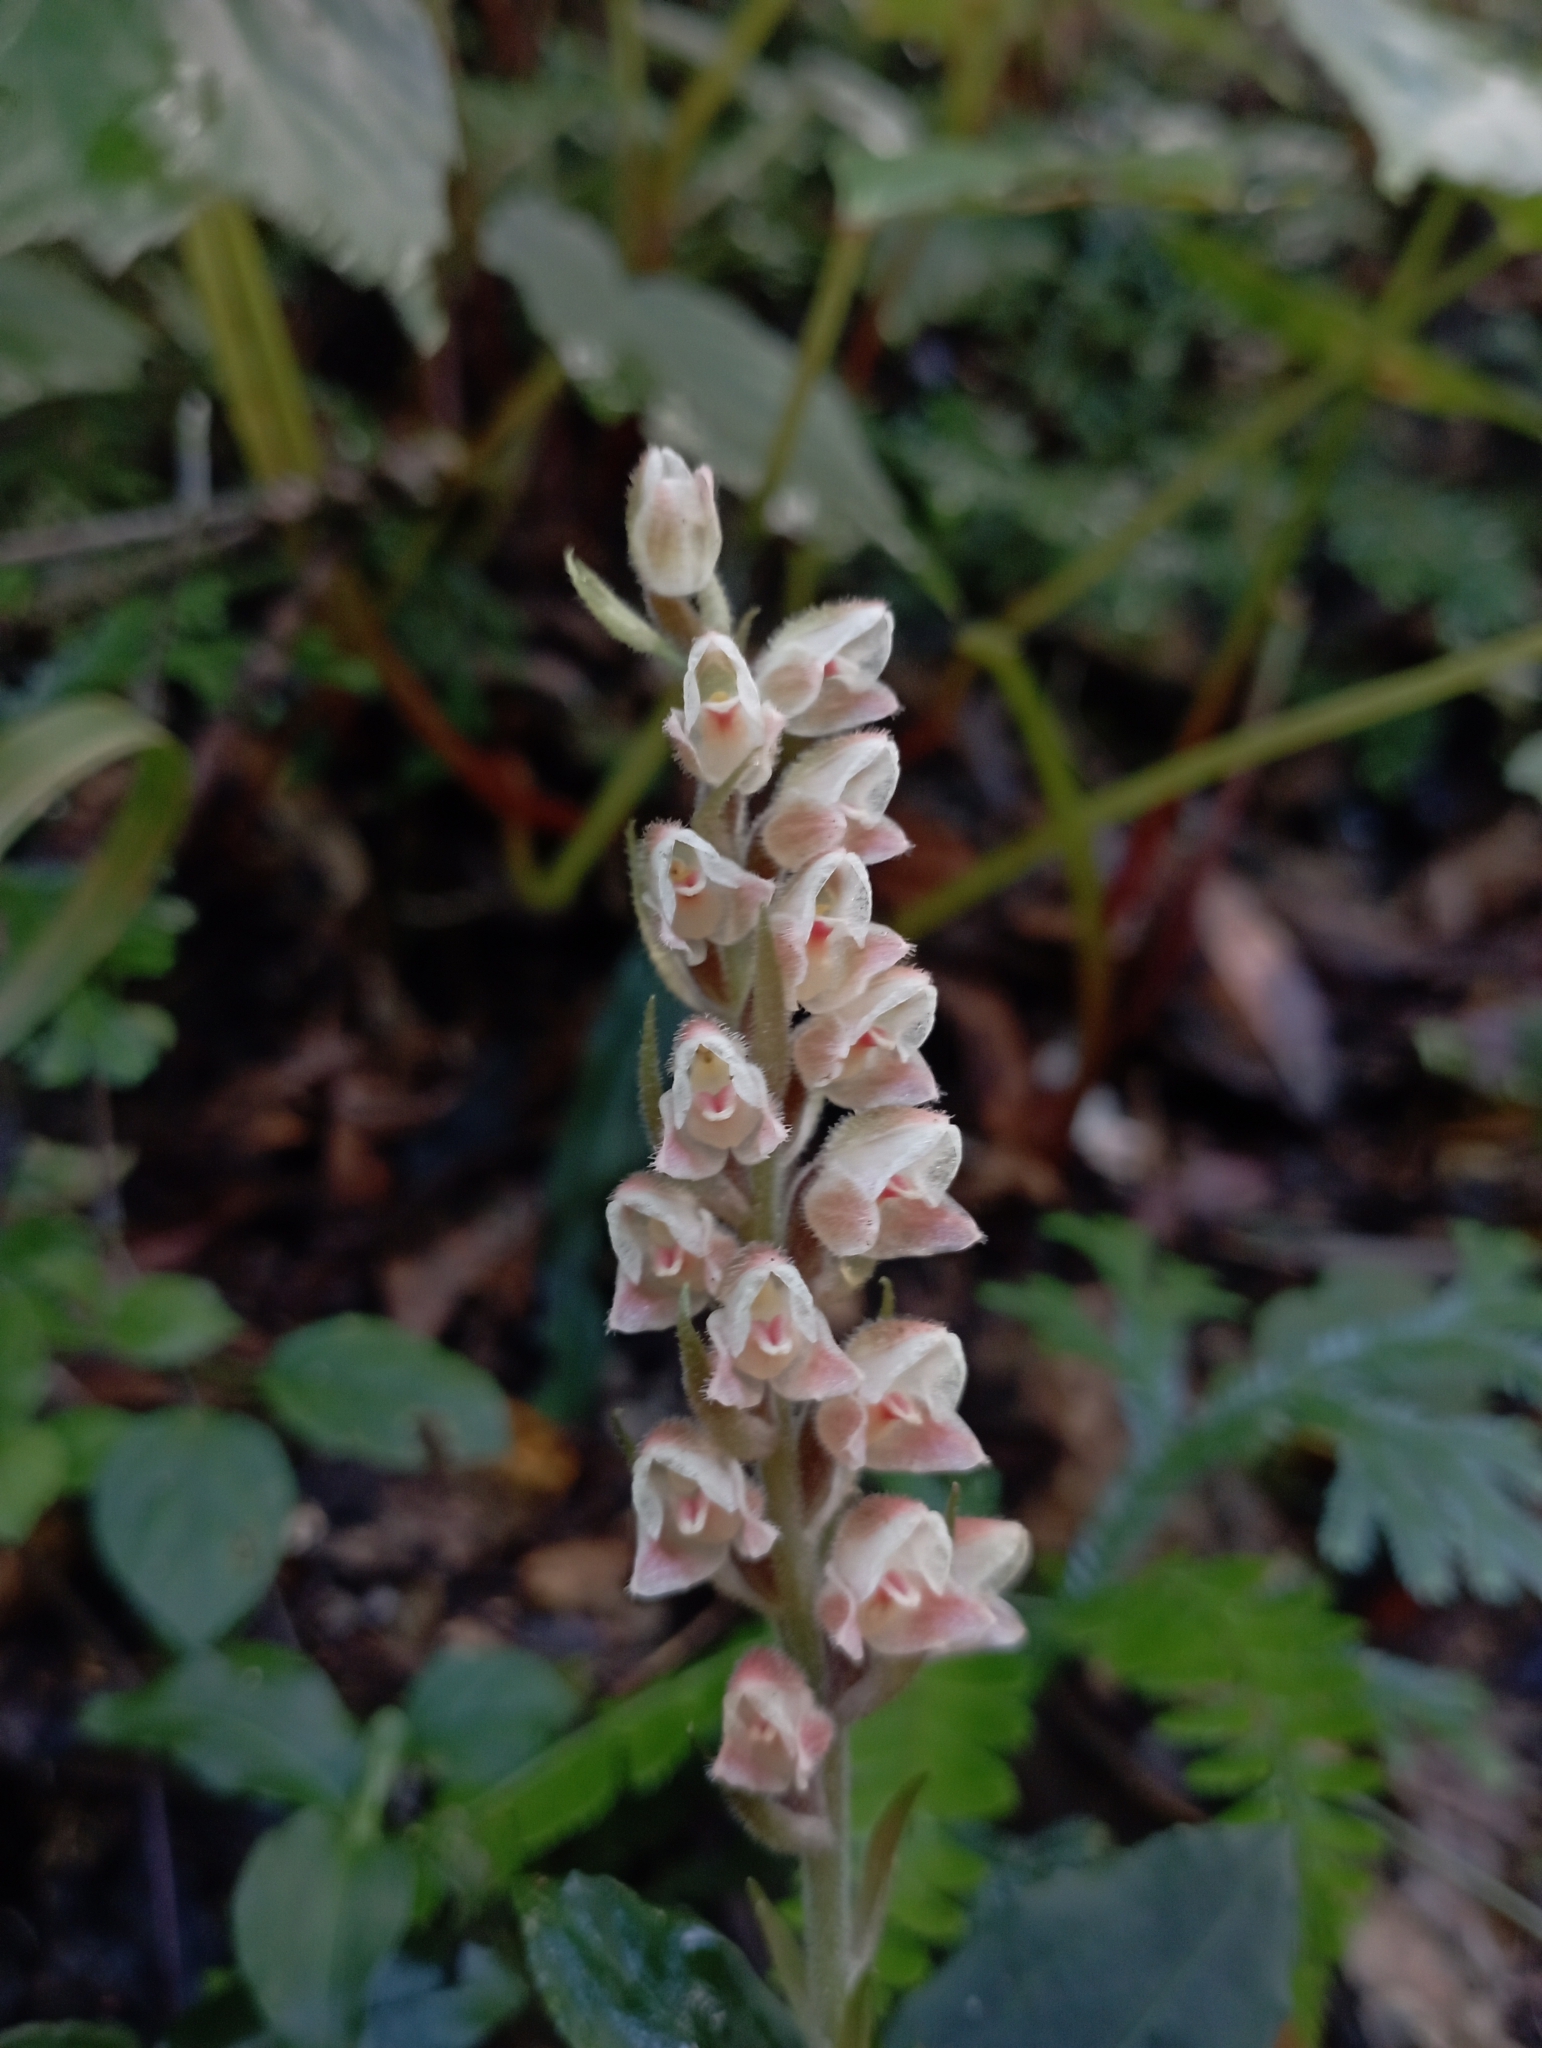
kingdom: Plantae
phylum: Tracheophyta
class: Liliopsida
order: Asparagales
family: Orchidaceae
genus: Goodyera
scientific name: Goodyera foliosa
